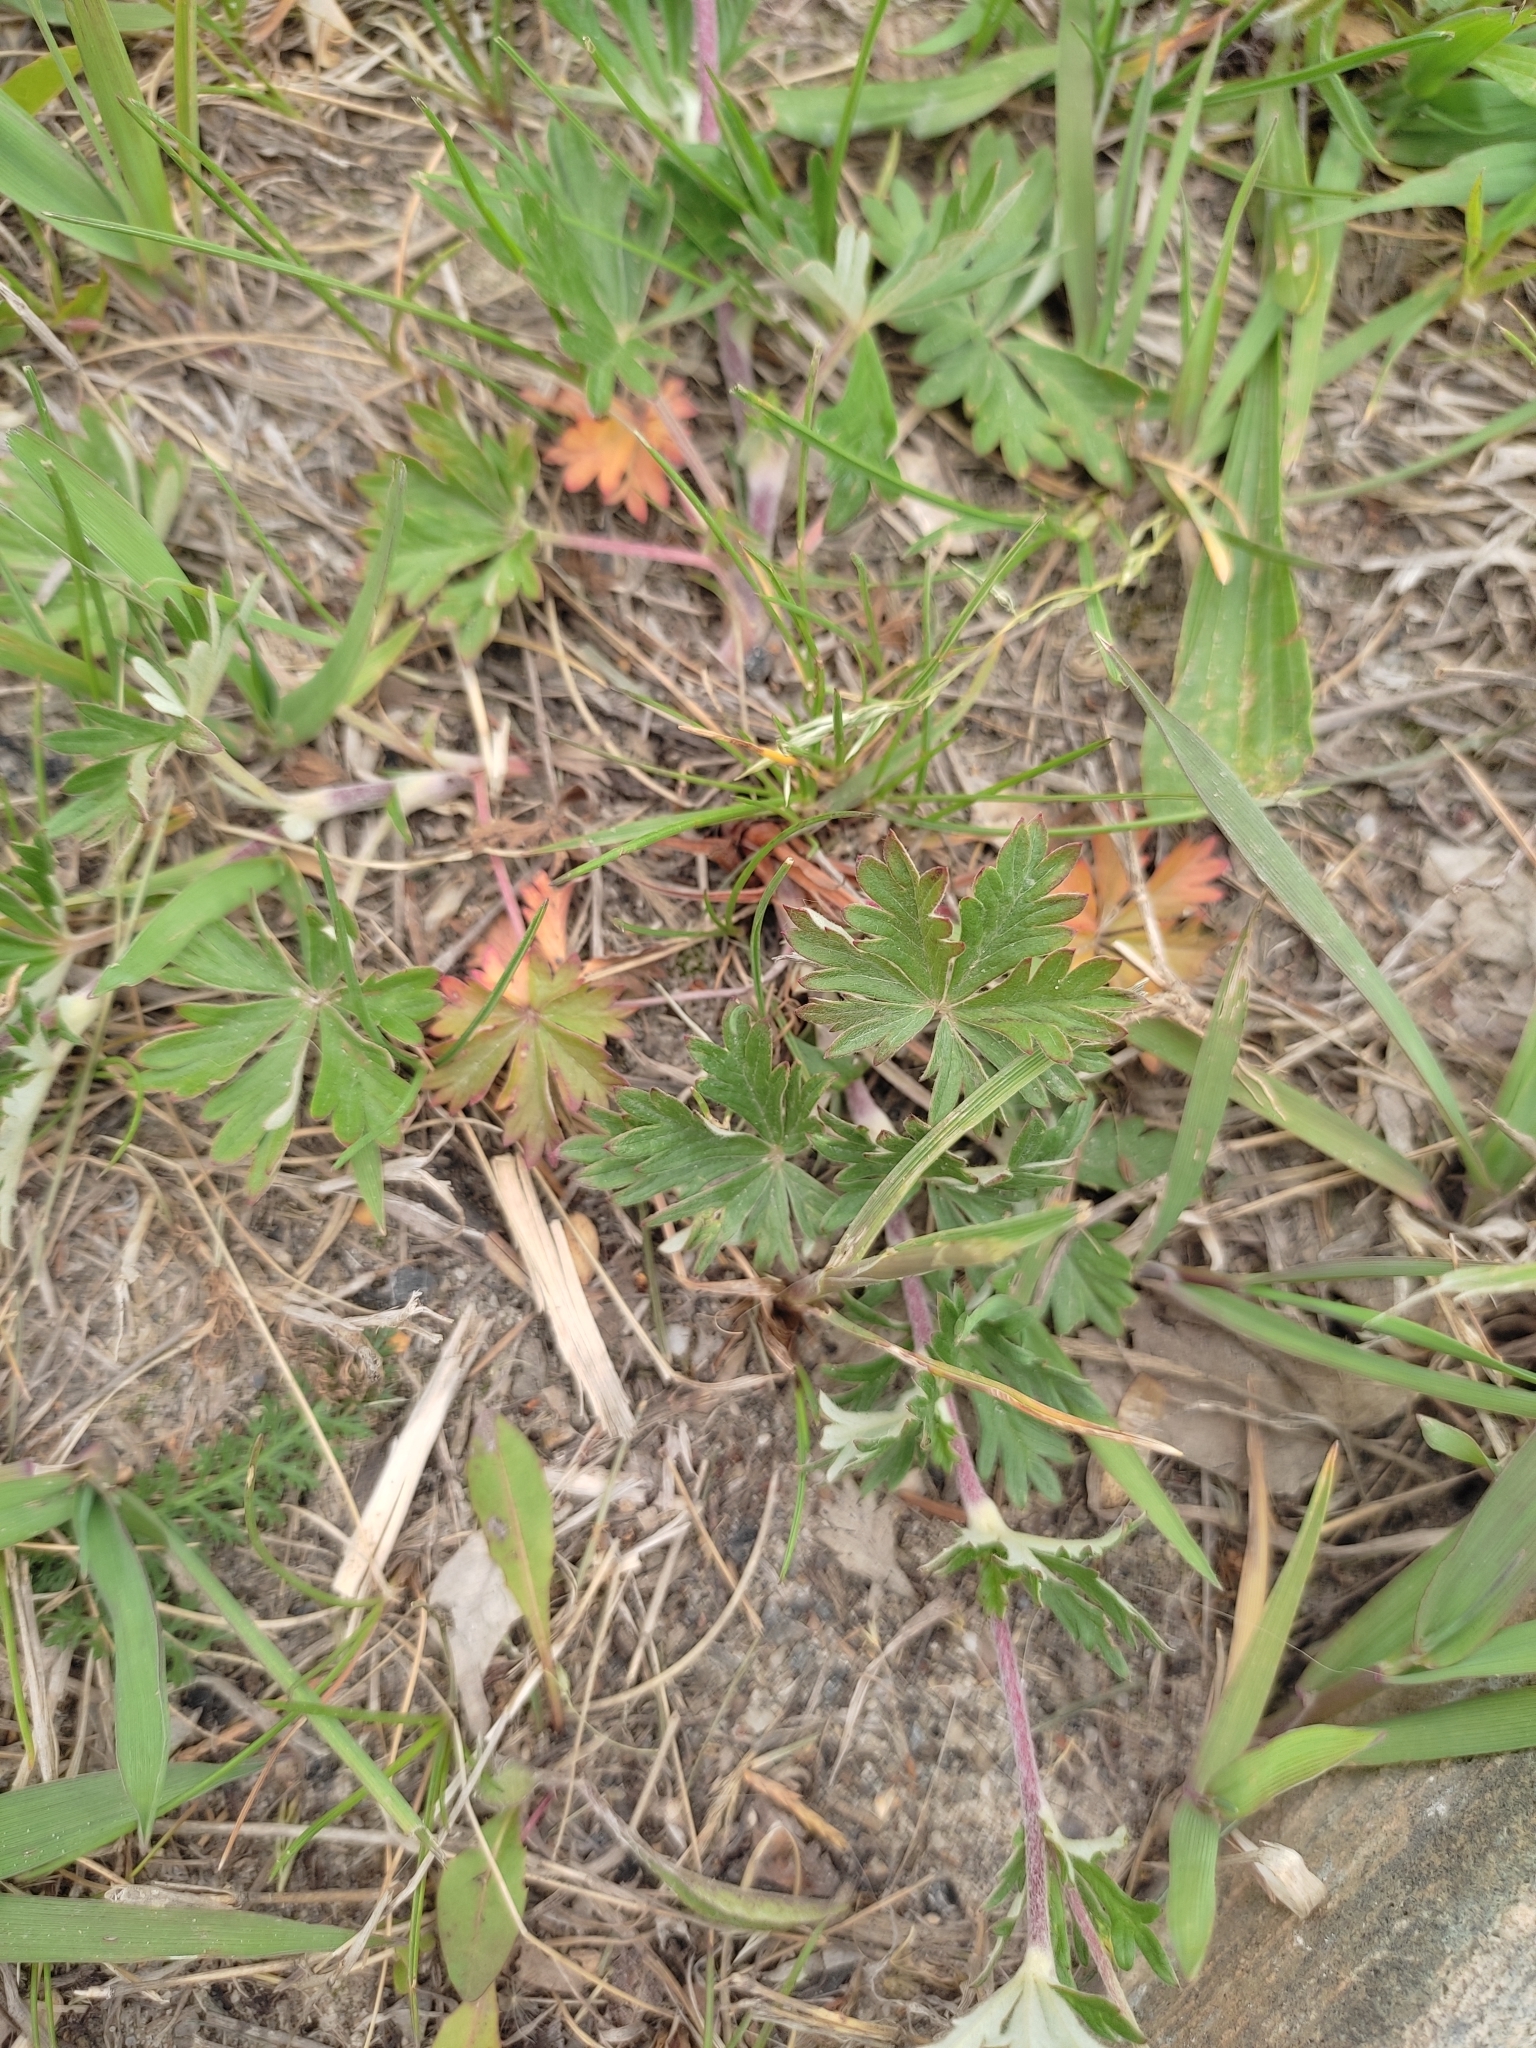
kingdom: Plantae
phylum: Tracheophyta
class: Magnoliopsida
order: Rosales
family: Rosaceae
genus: Potentilla
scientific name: Potentilla argentea
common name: Hoary cinquefoil
